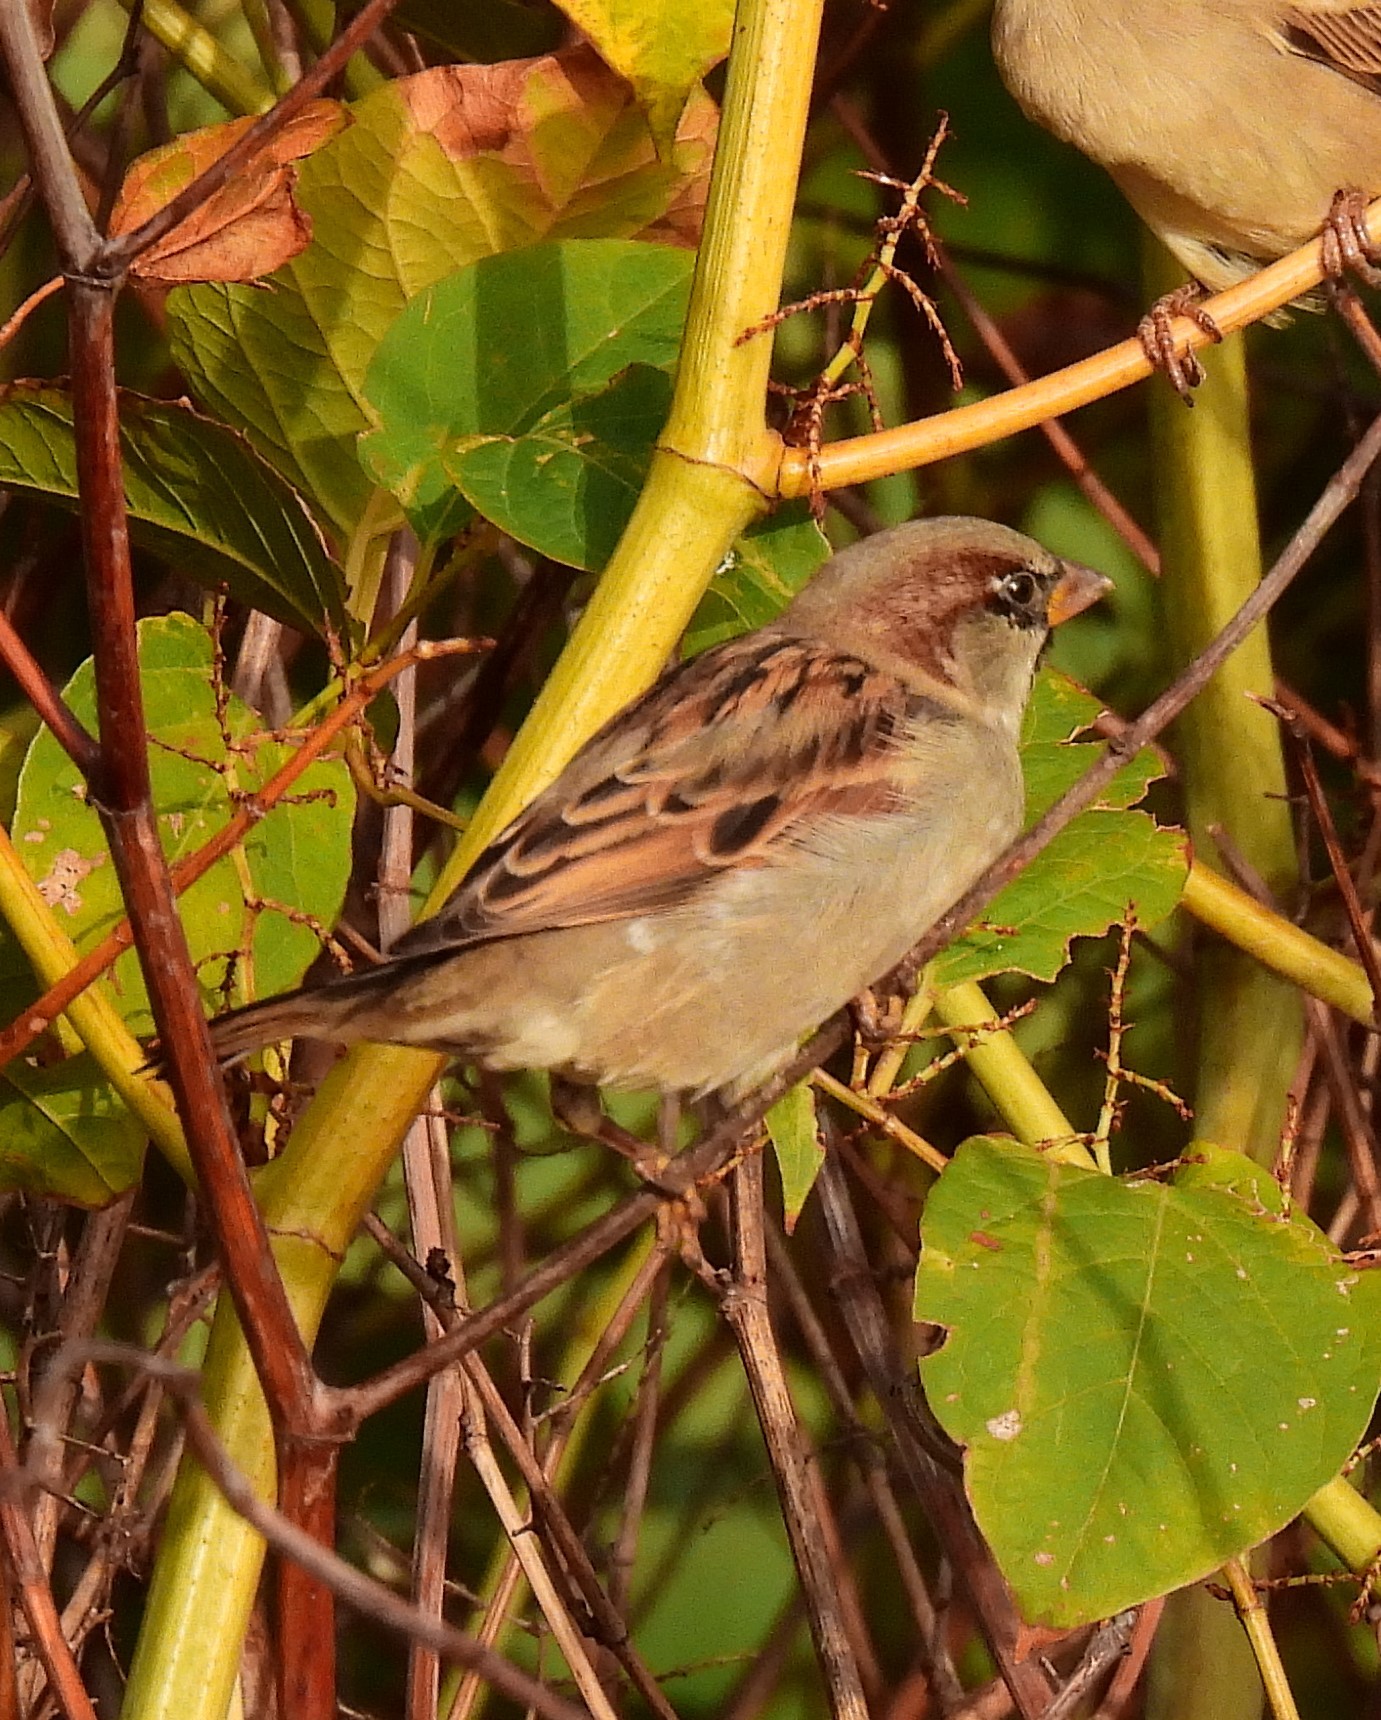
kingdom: Animalia
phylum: Chordata
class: Aves
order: Passeriformes
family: Passeridae
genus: Passer
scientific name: Passer domesticus
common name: House sparrow
